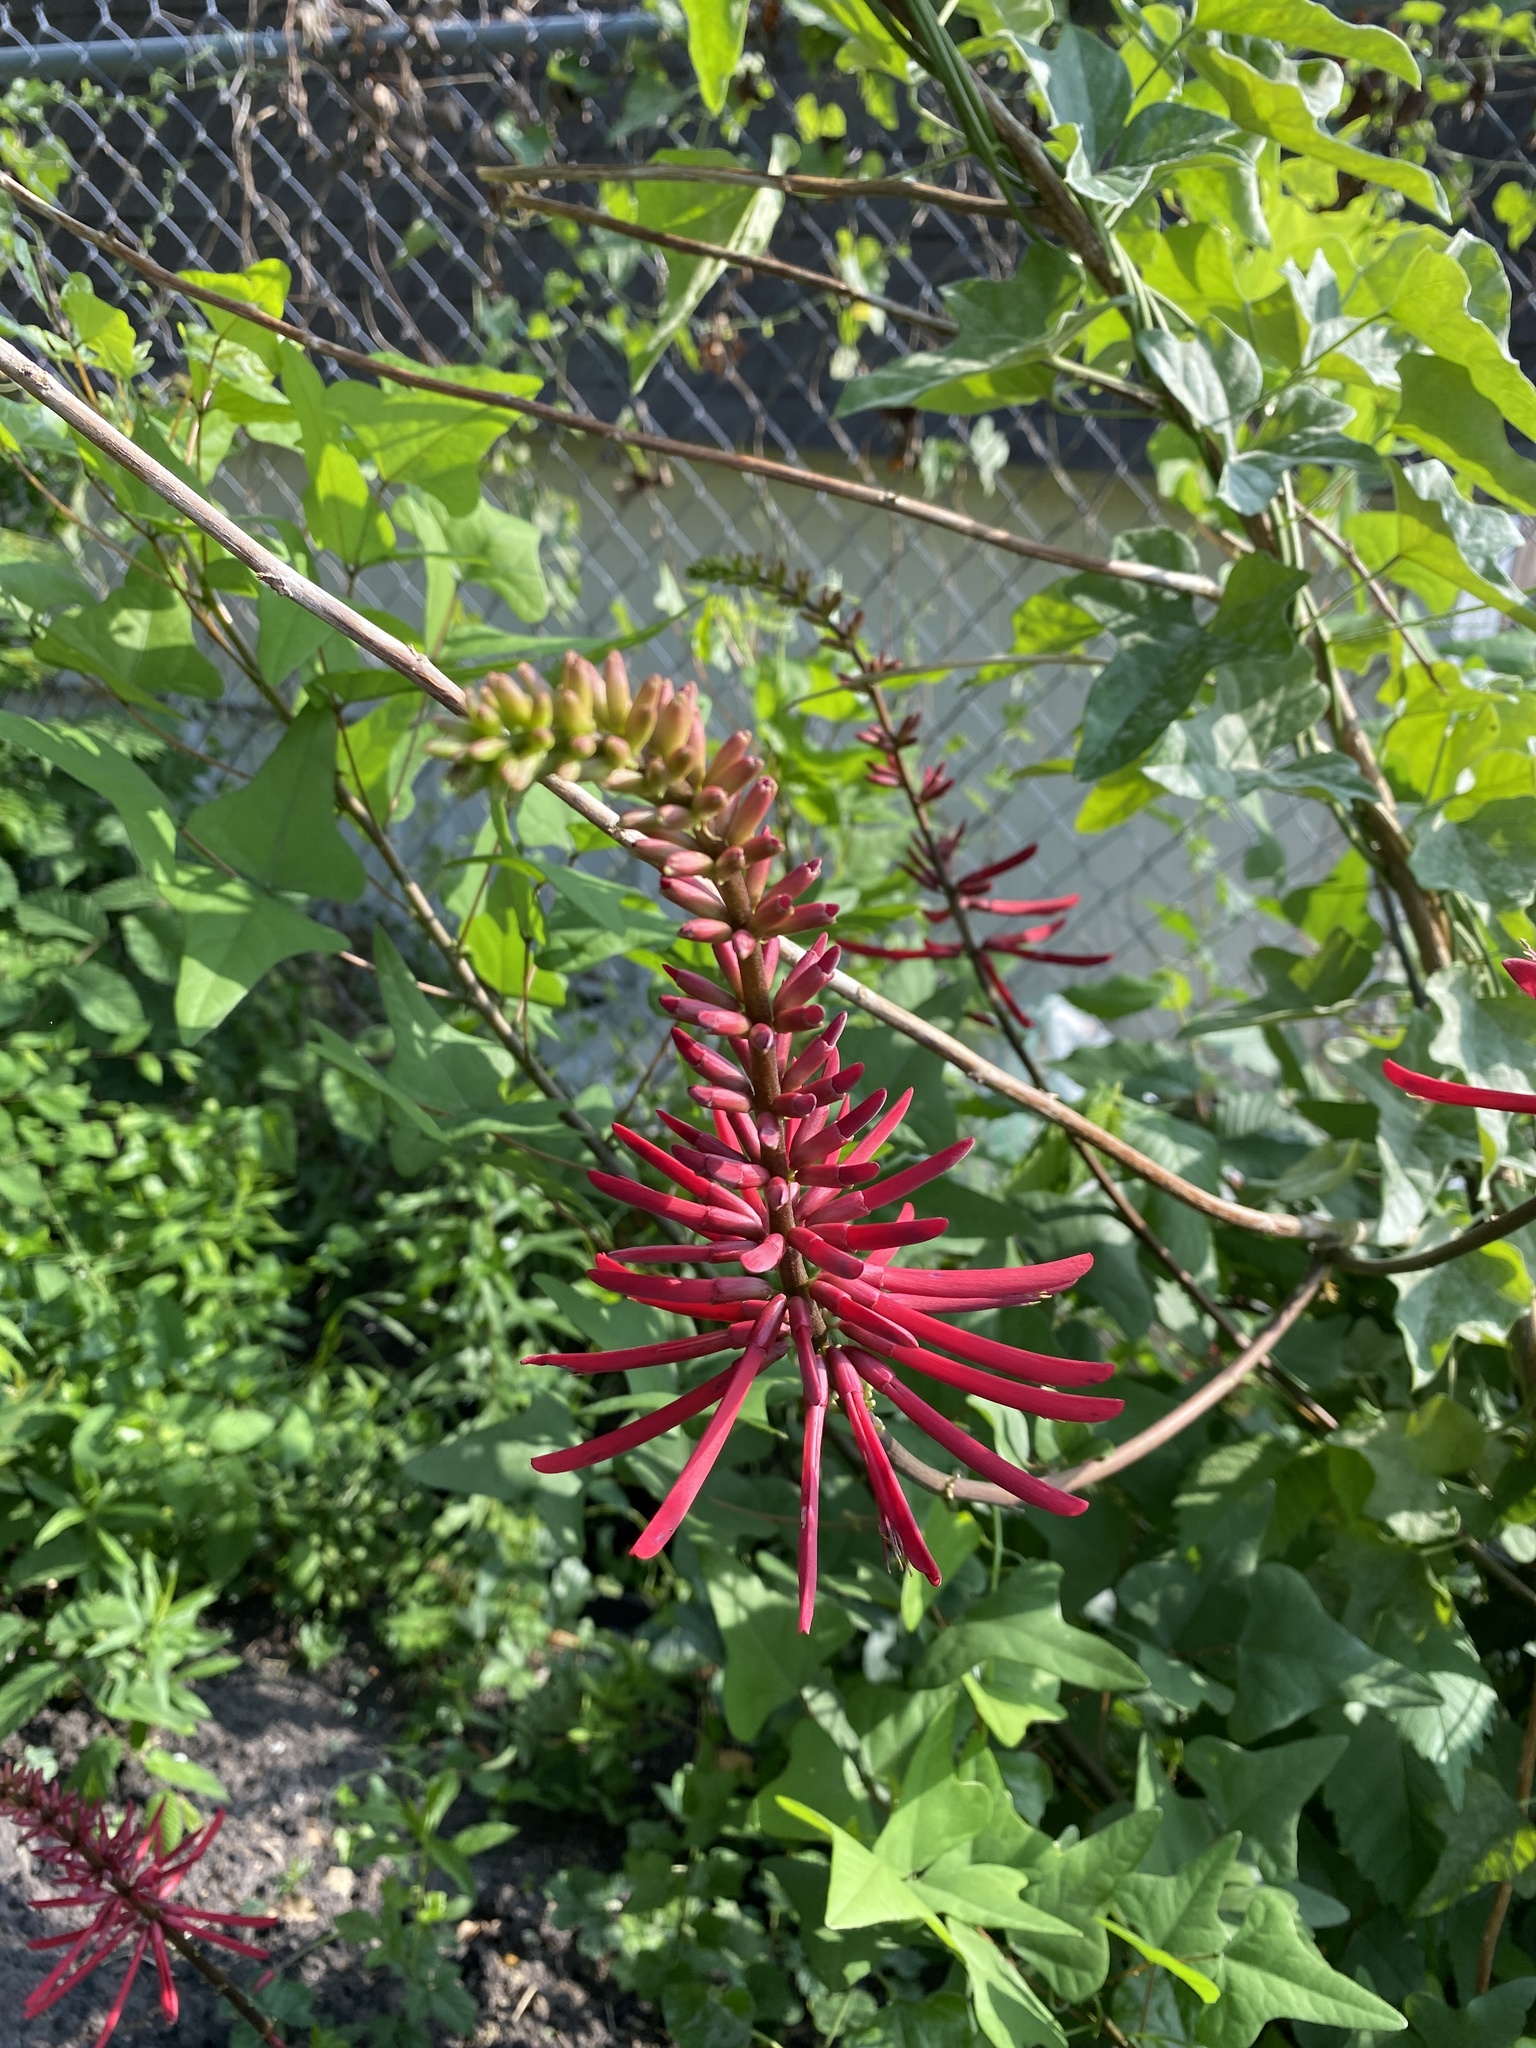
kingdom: Plantae
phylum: Tracheophyta
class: Magnoliopsida
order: Fabales
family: Fabaceae
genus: Erythrina
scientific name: Erythrina herbacea
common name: Coral-bean
